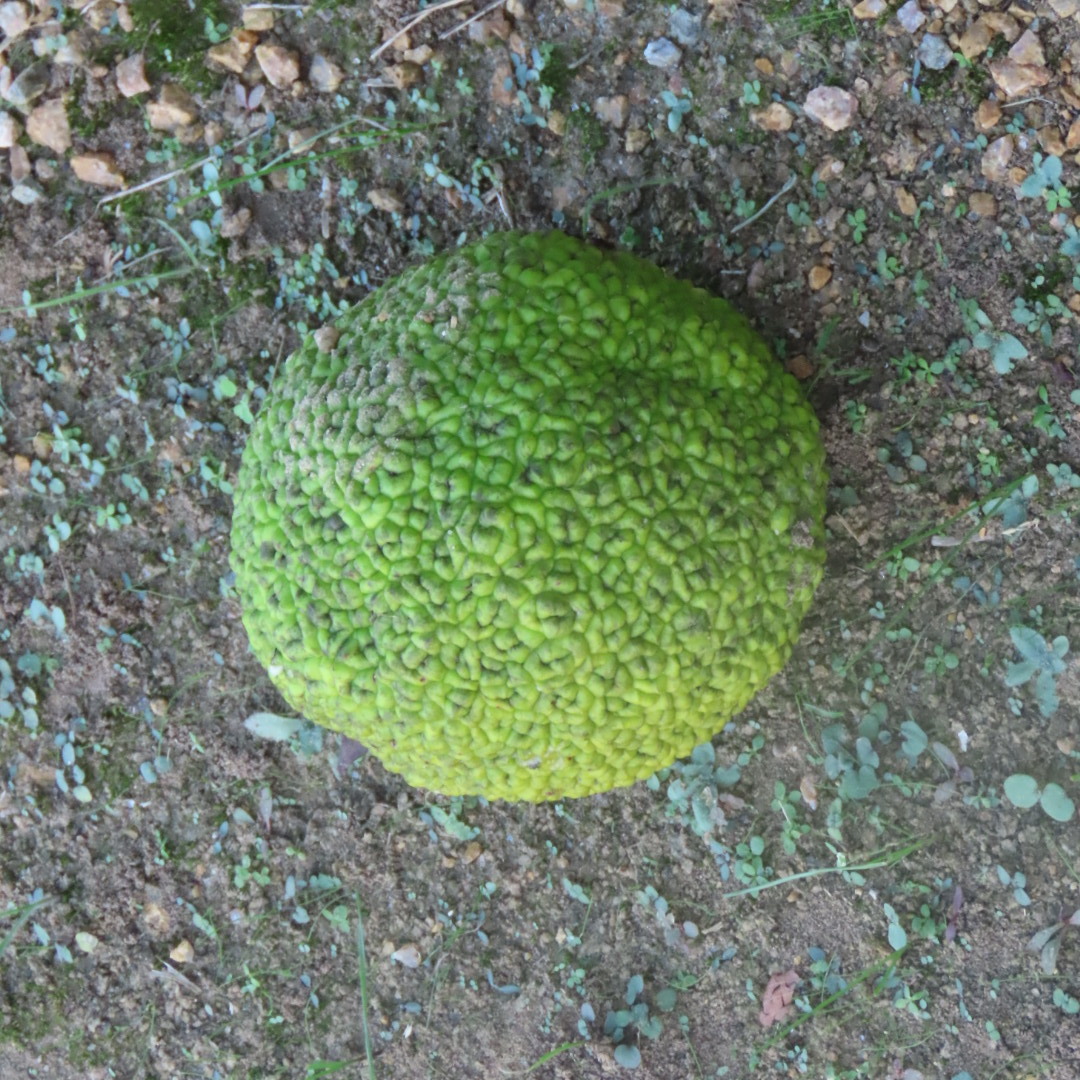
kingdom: Plantae
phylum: Tracheophyta
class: Magnoliopsida
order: Rosales
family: Moraceae
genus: Maclura
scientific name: Maclura pomifera
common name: Osage-orange
